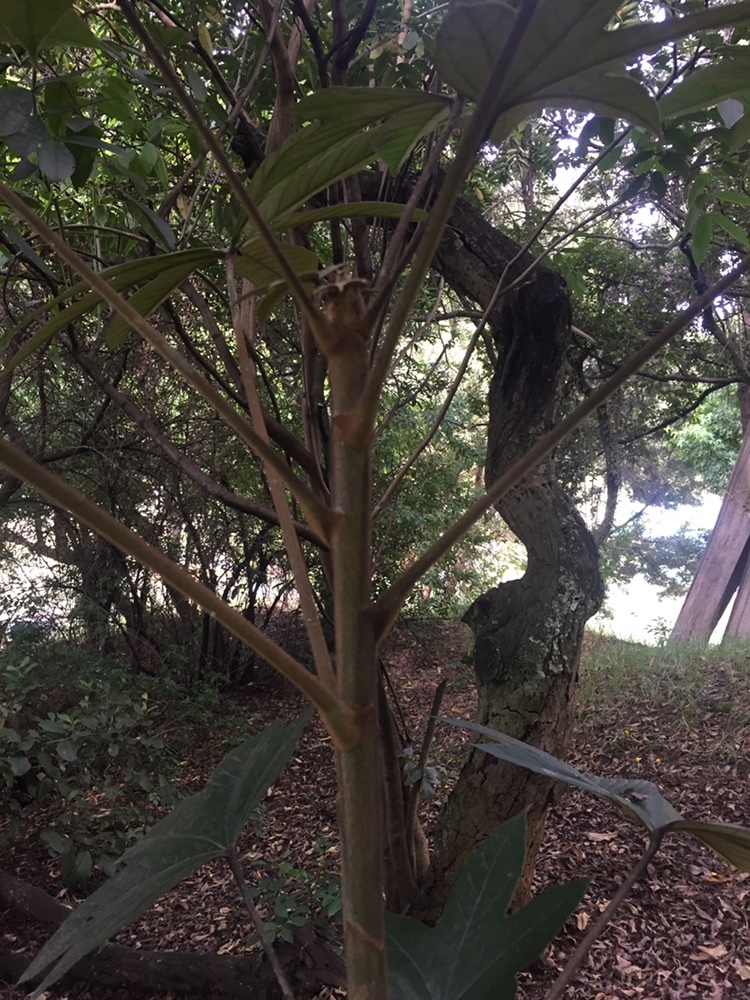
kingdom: Plantae
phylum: Tracheophyta
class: Magnoliopsida
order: Apiales
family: Araliaceae
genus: Oreopanax
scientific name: Oreopanax incisus
